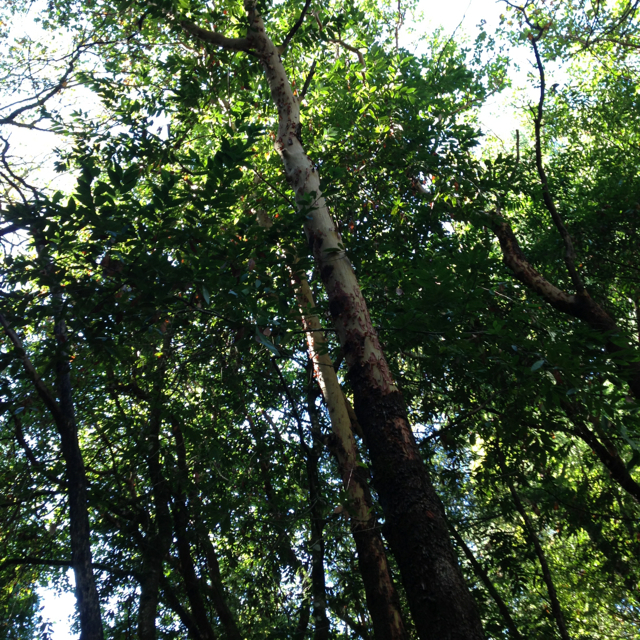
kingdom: Plantae
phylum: Tracheophyta
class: Magnoliopsida
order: Ericales
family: Ericaceae
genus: Arbutus
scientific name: Arbutus menziesii
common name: Pacific madrone
